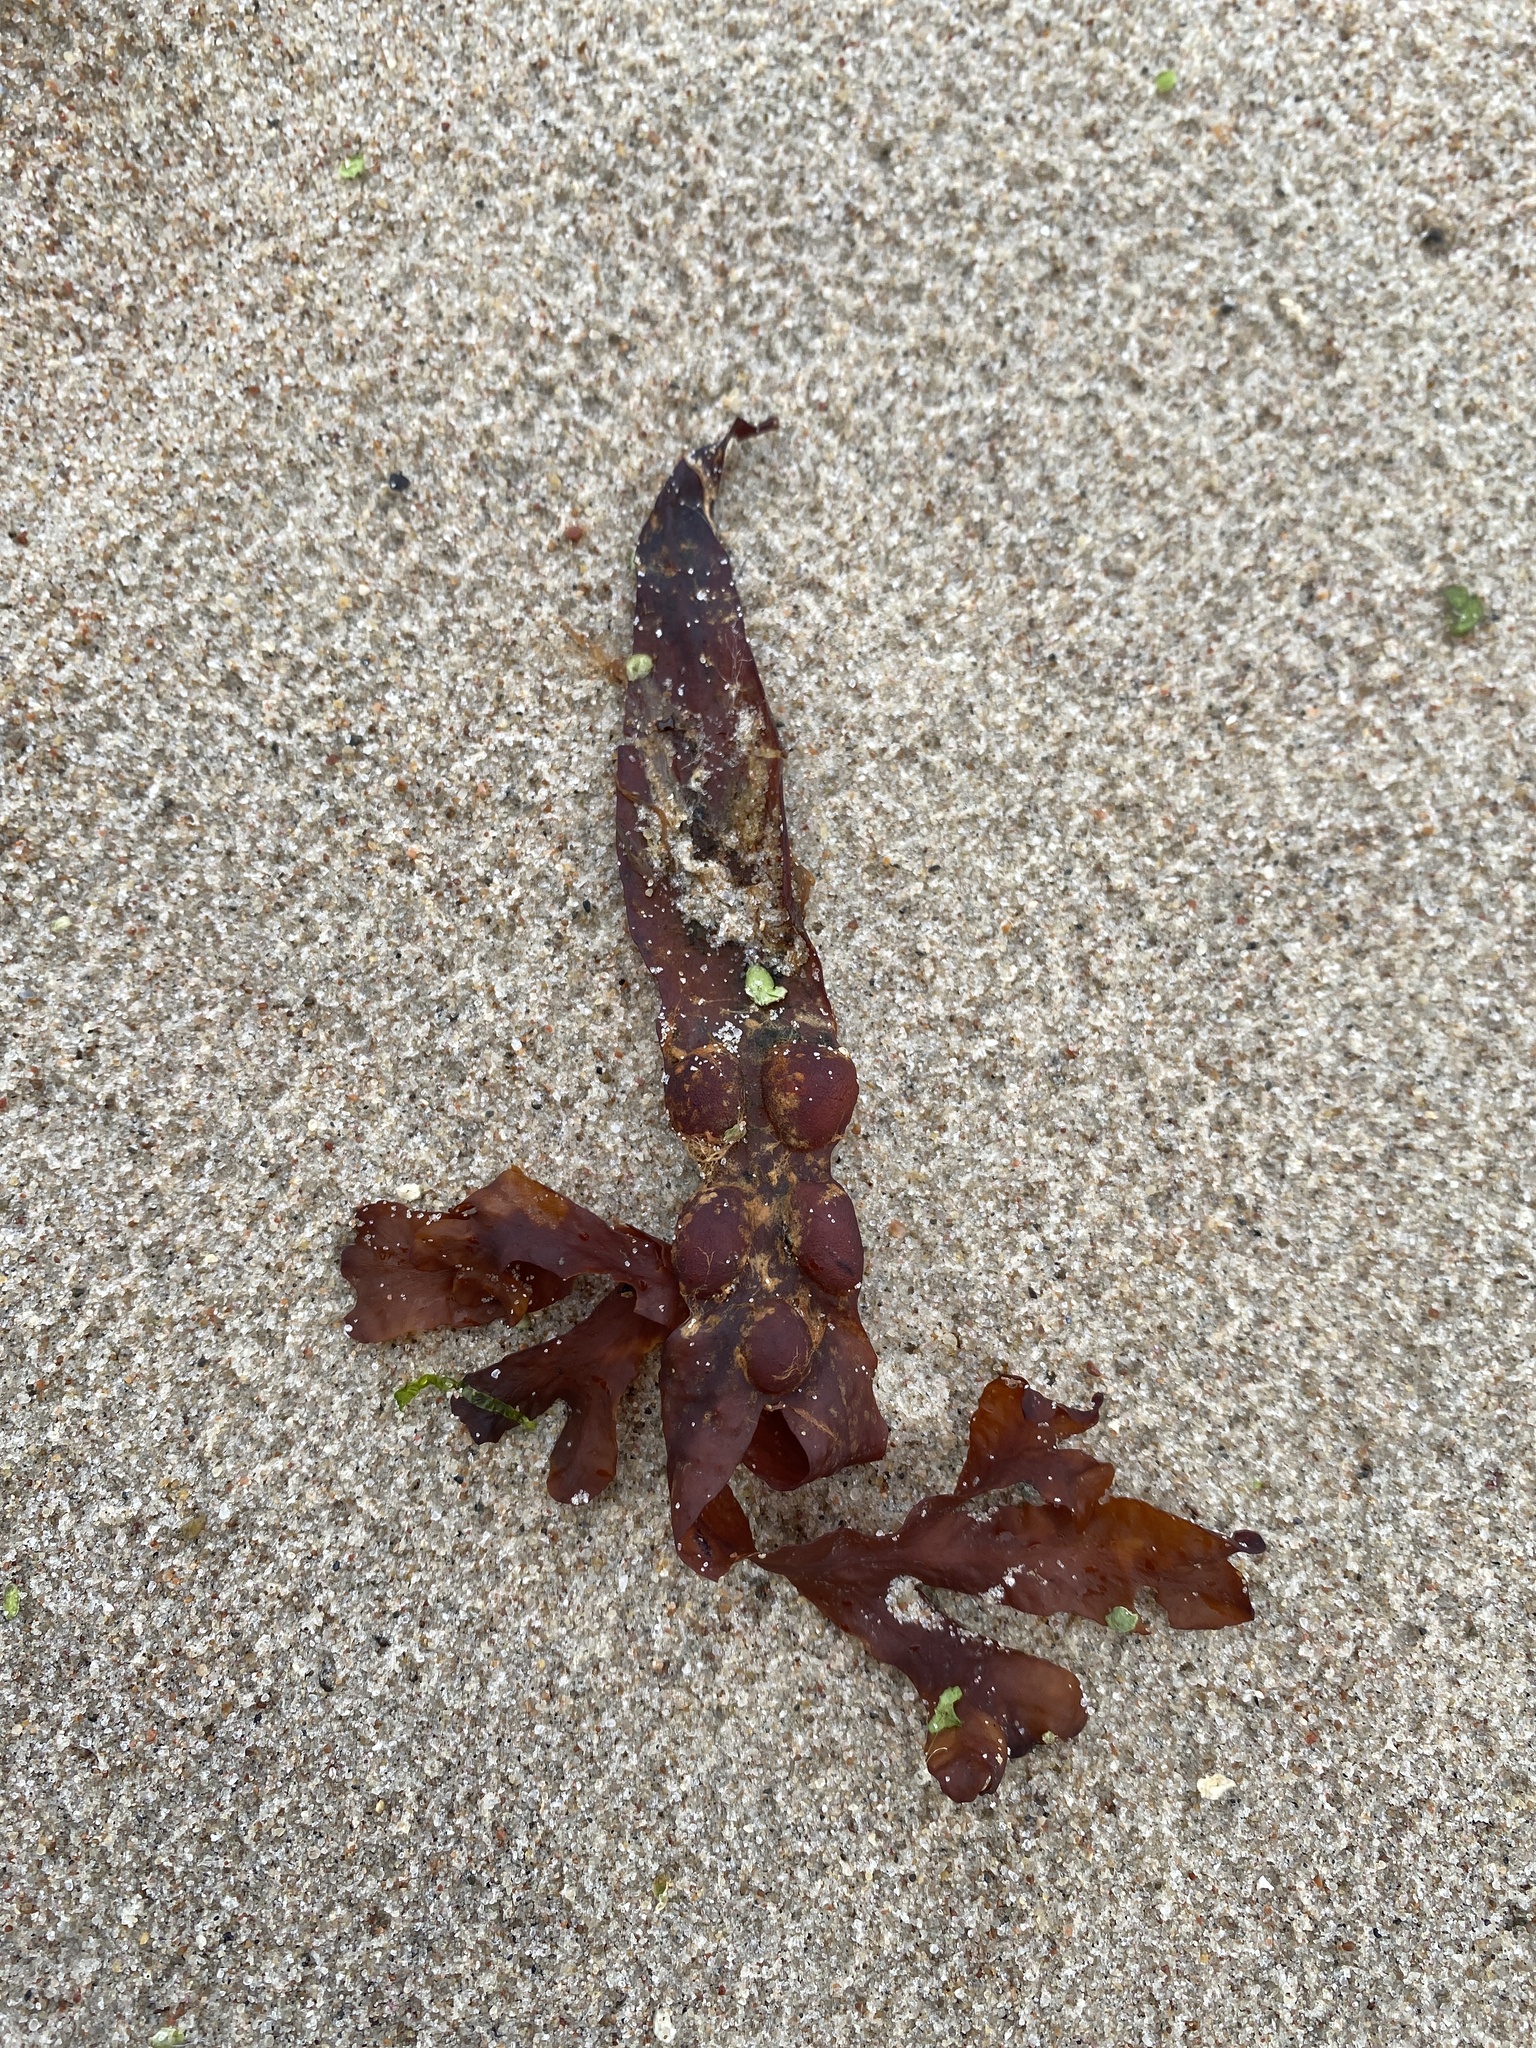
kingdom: Chromista
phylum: Ochrophyta
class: Phaeophyceae
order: Fucales
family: Fucaceae
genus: Fucus
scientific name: Fucus vesiculosus
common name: Bladder wrack
